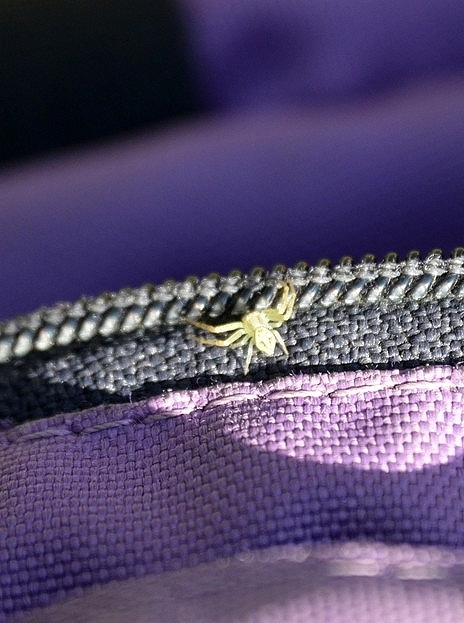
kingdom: Animalia
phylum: Arthropoda
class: Arachnida
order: Araneae
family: Thomisidae
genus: Misumenops
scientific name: Misumenops
